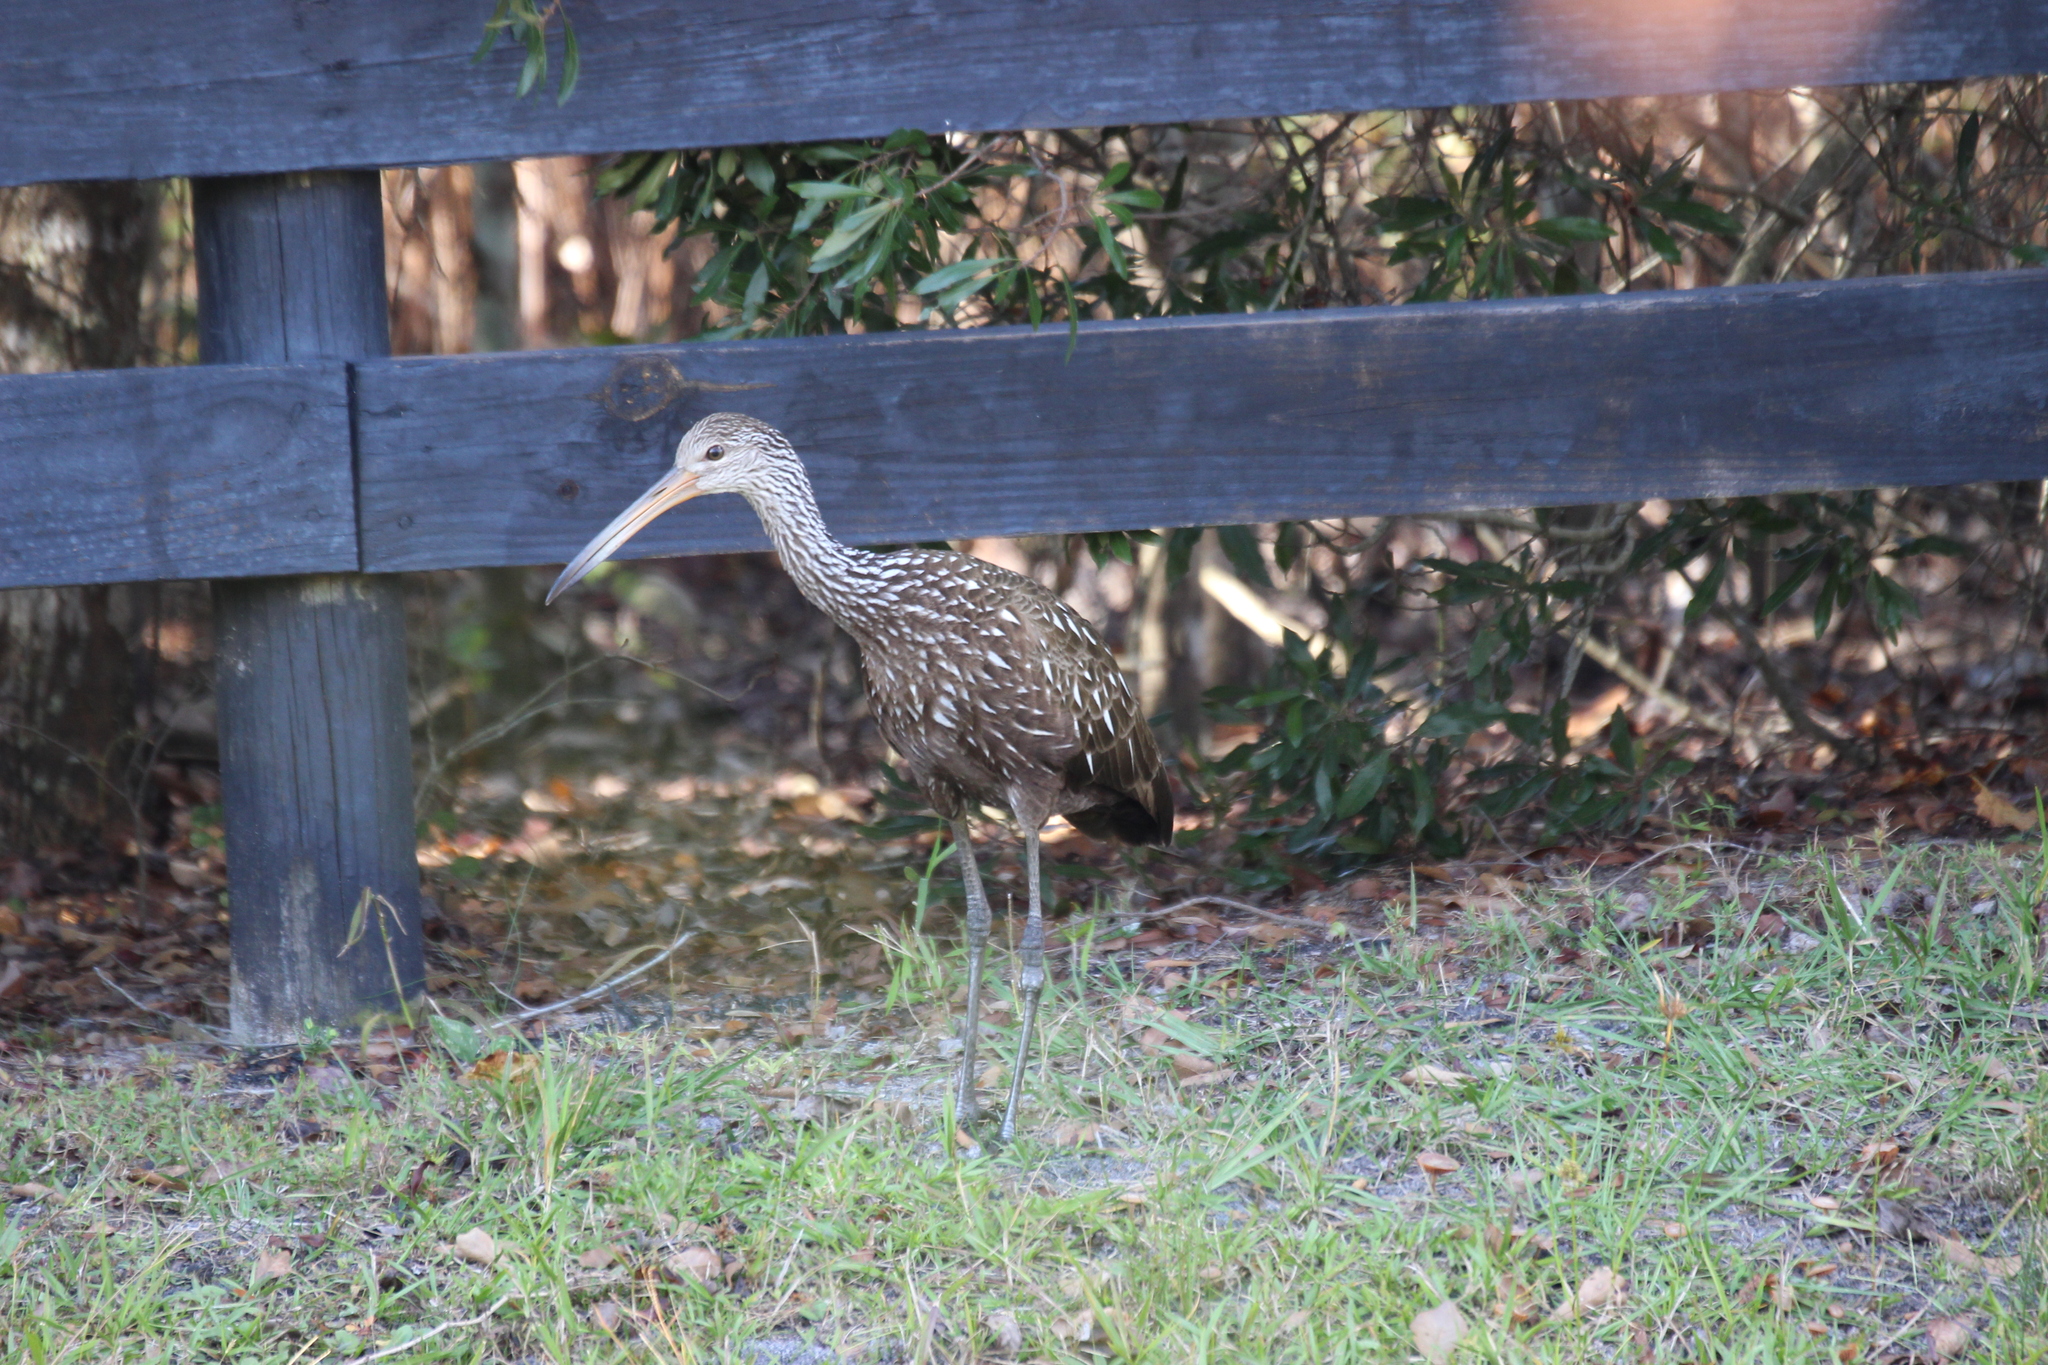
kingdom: Animalia
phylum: Chordata
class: Aves
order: Gruiformes
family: Aramidae
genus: Aramus
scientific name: Aramus guarauna
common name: Limpkin
